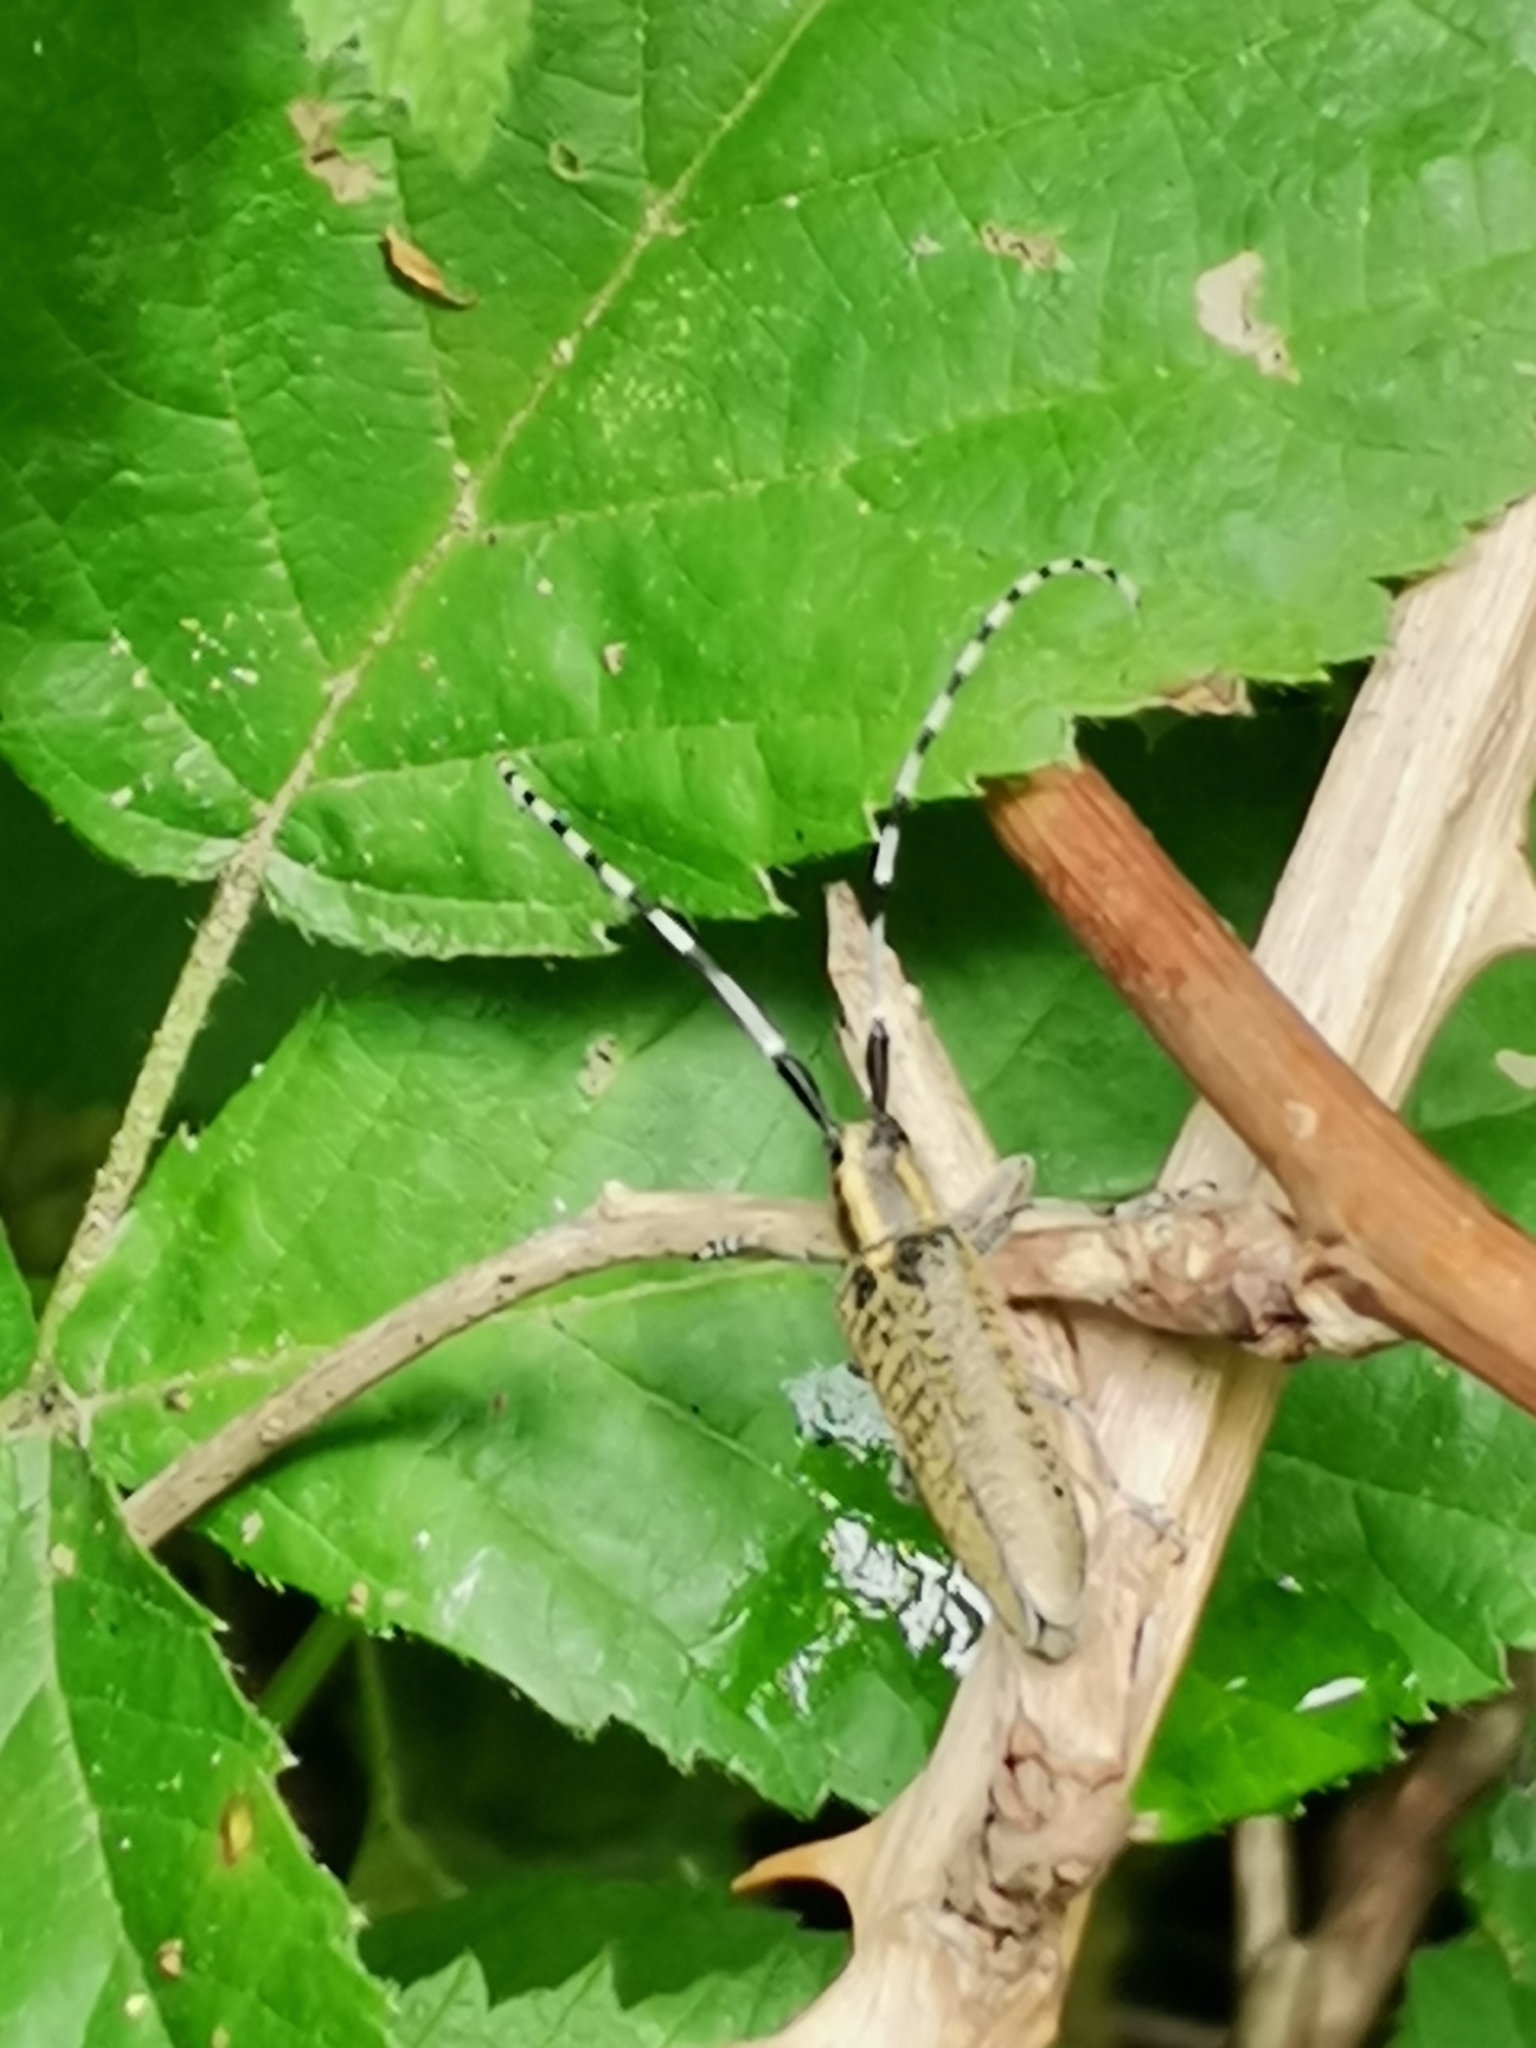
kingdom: Animalia
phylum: Arthropoda
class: Insecta
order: Coleoptera
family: Cerambycidae
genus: Agapanthia
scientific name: Agapanthia villosoviridescens
